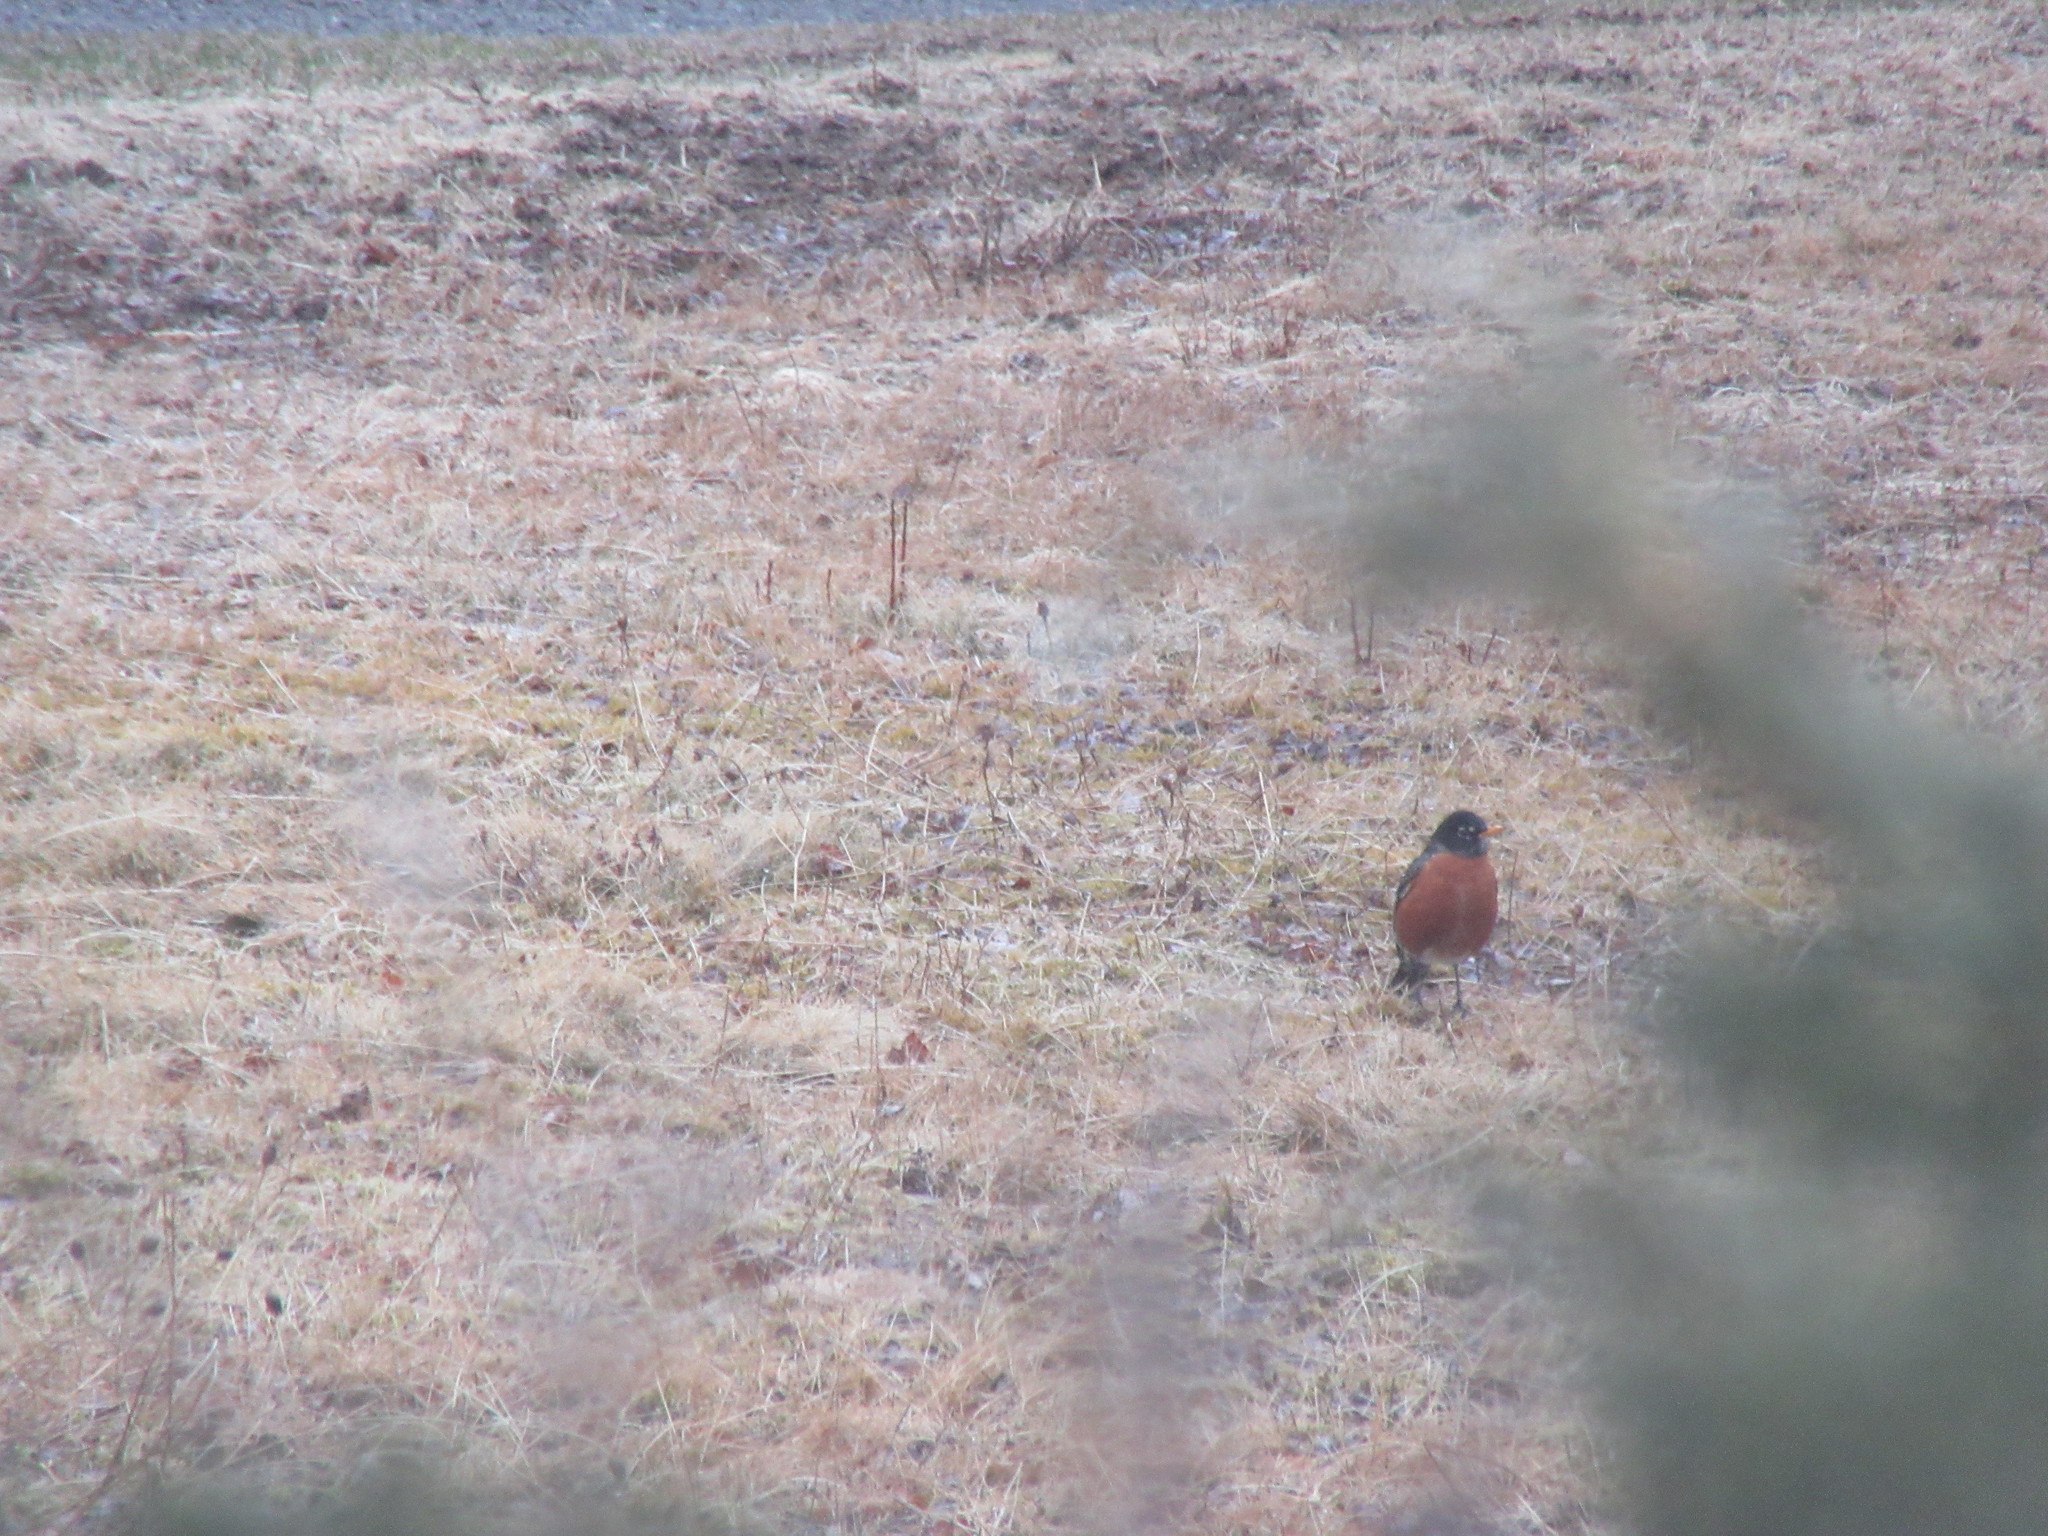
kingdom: Animalia
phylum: Chordata
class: Aves
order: Passeriformes
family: Turdidae
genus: Turdus
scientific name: Turdus migratorius
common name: American robin
